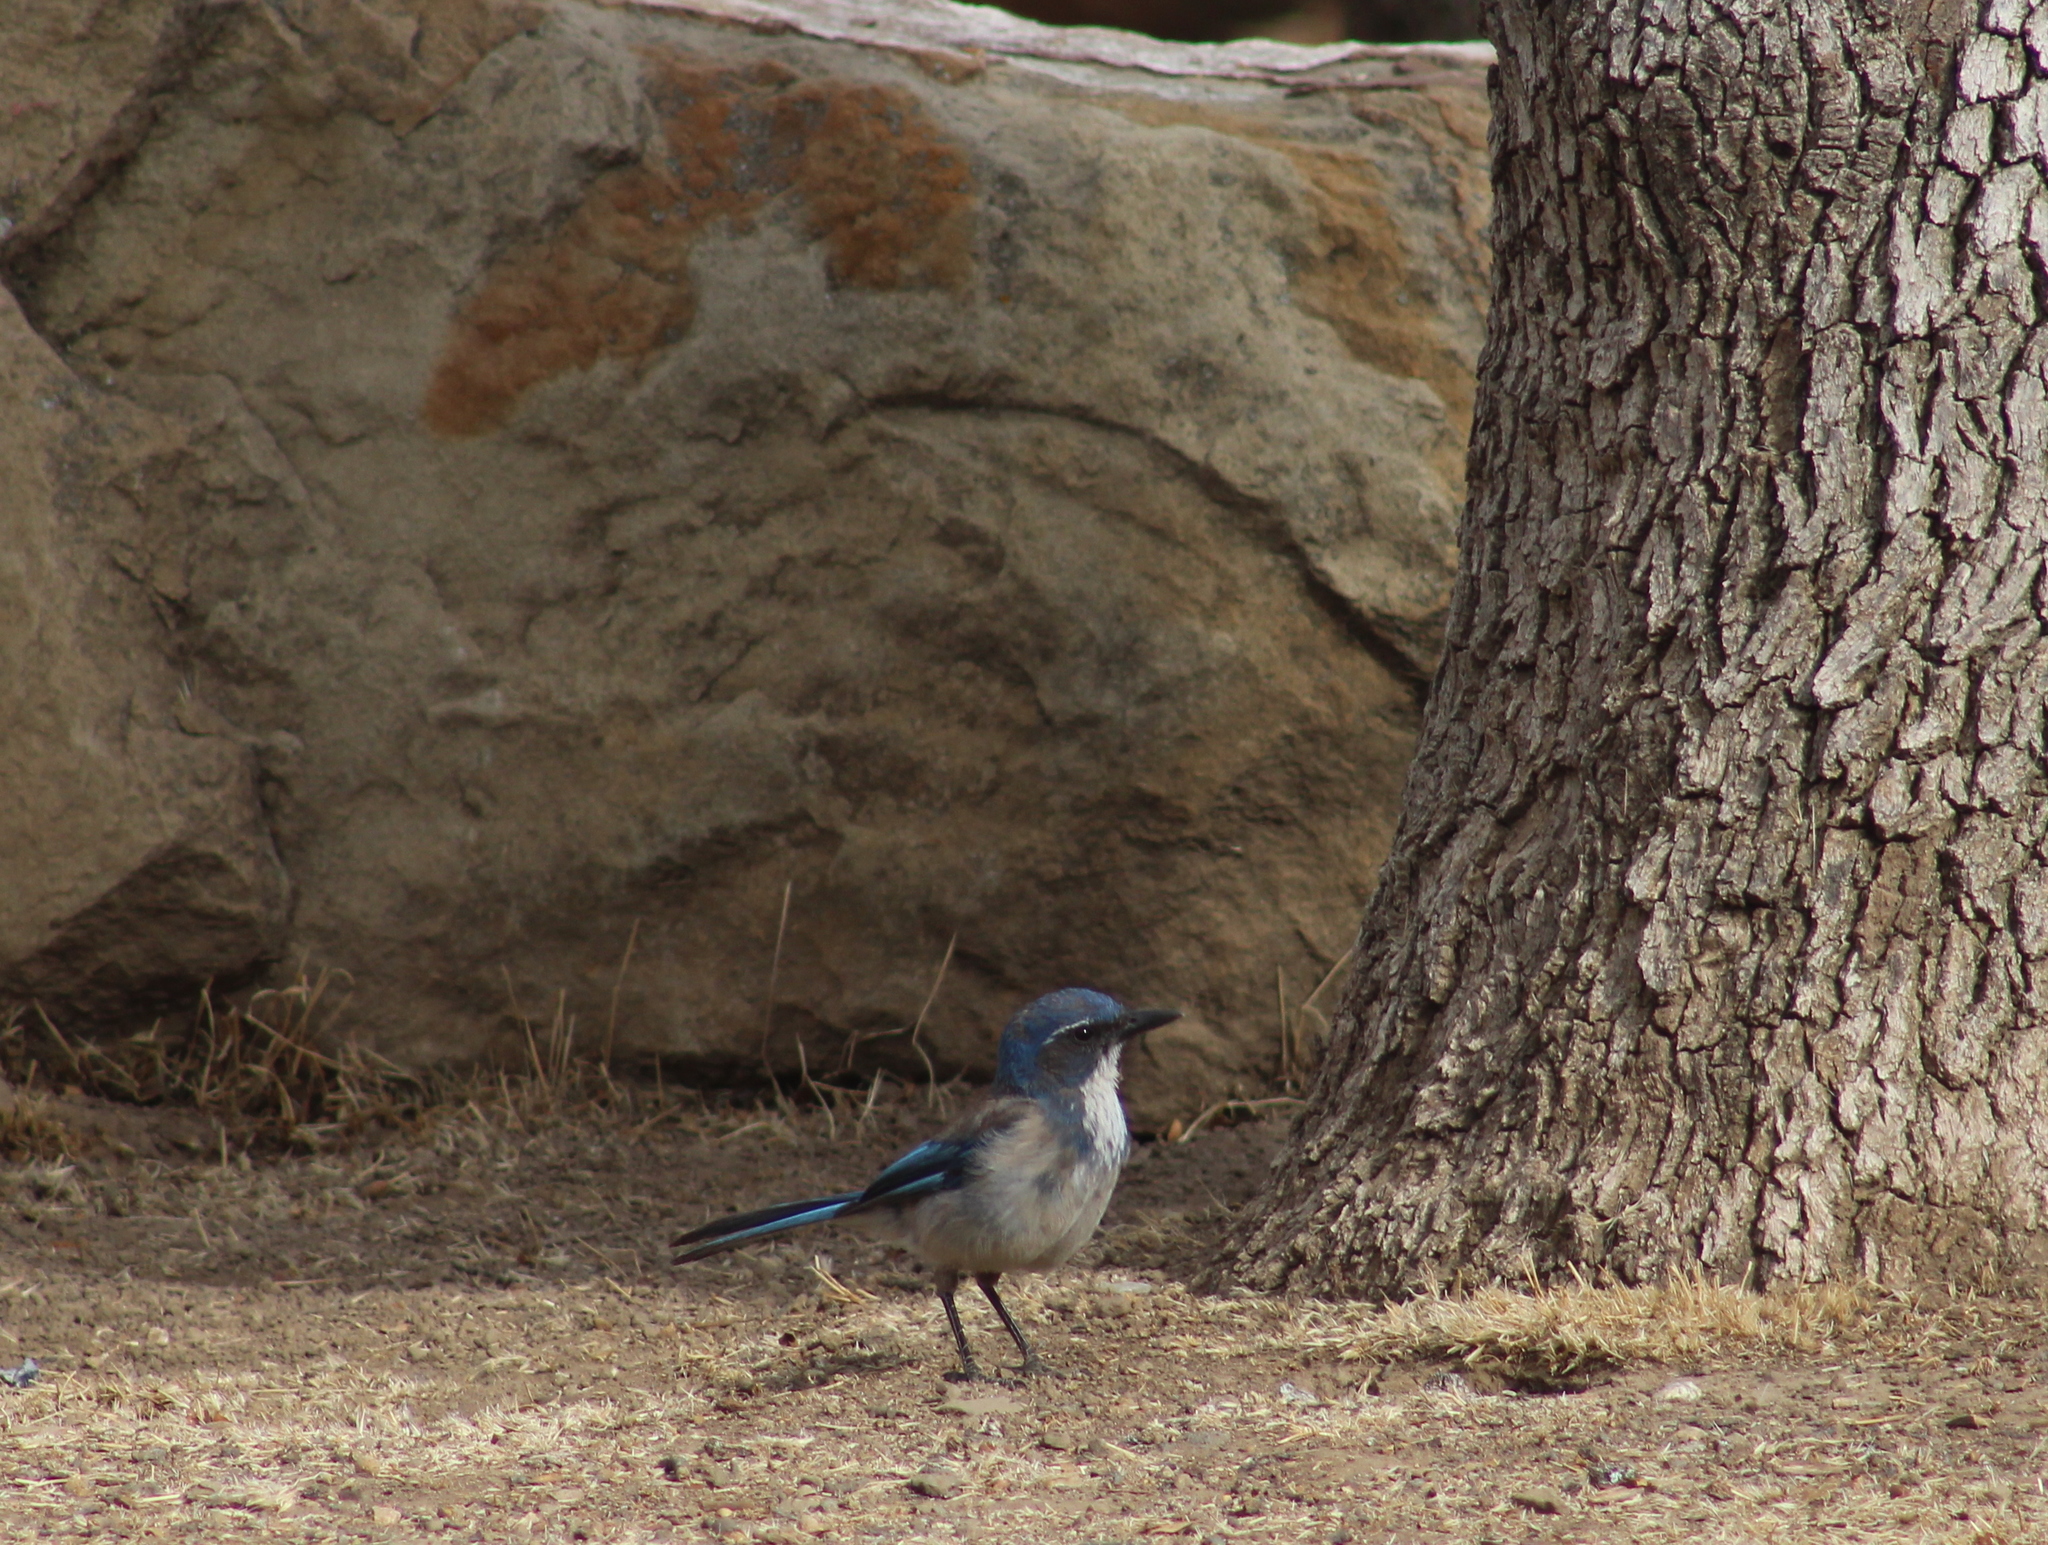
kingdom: Animalia
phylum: Chordata
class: Aves
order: Passeriformes
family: Corvidae
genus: Aphelocoma
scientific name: Aphelocoma californica
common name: California scrub-jay
